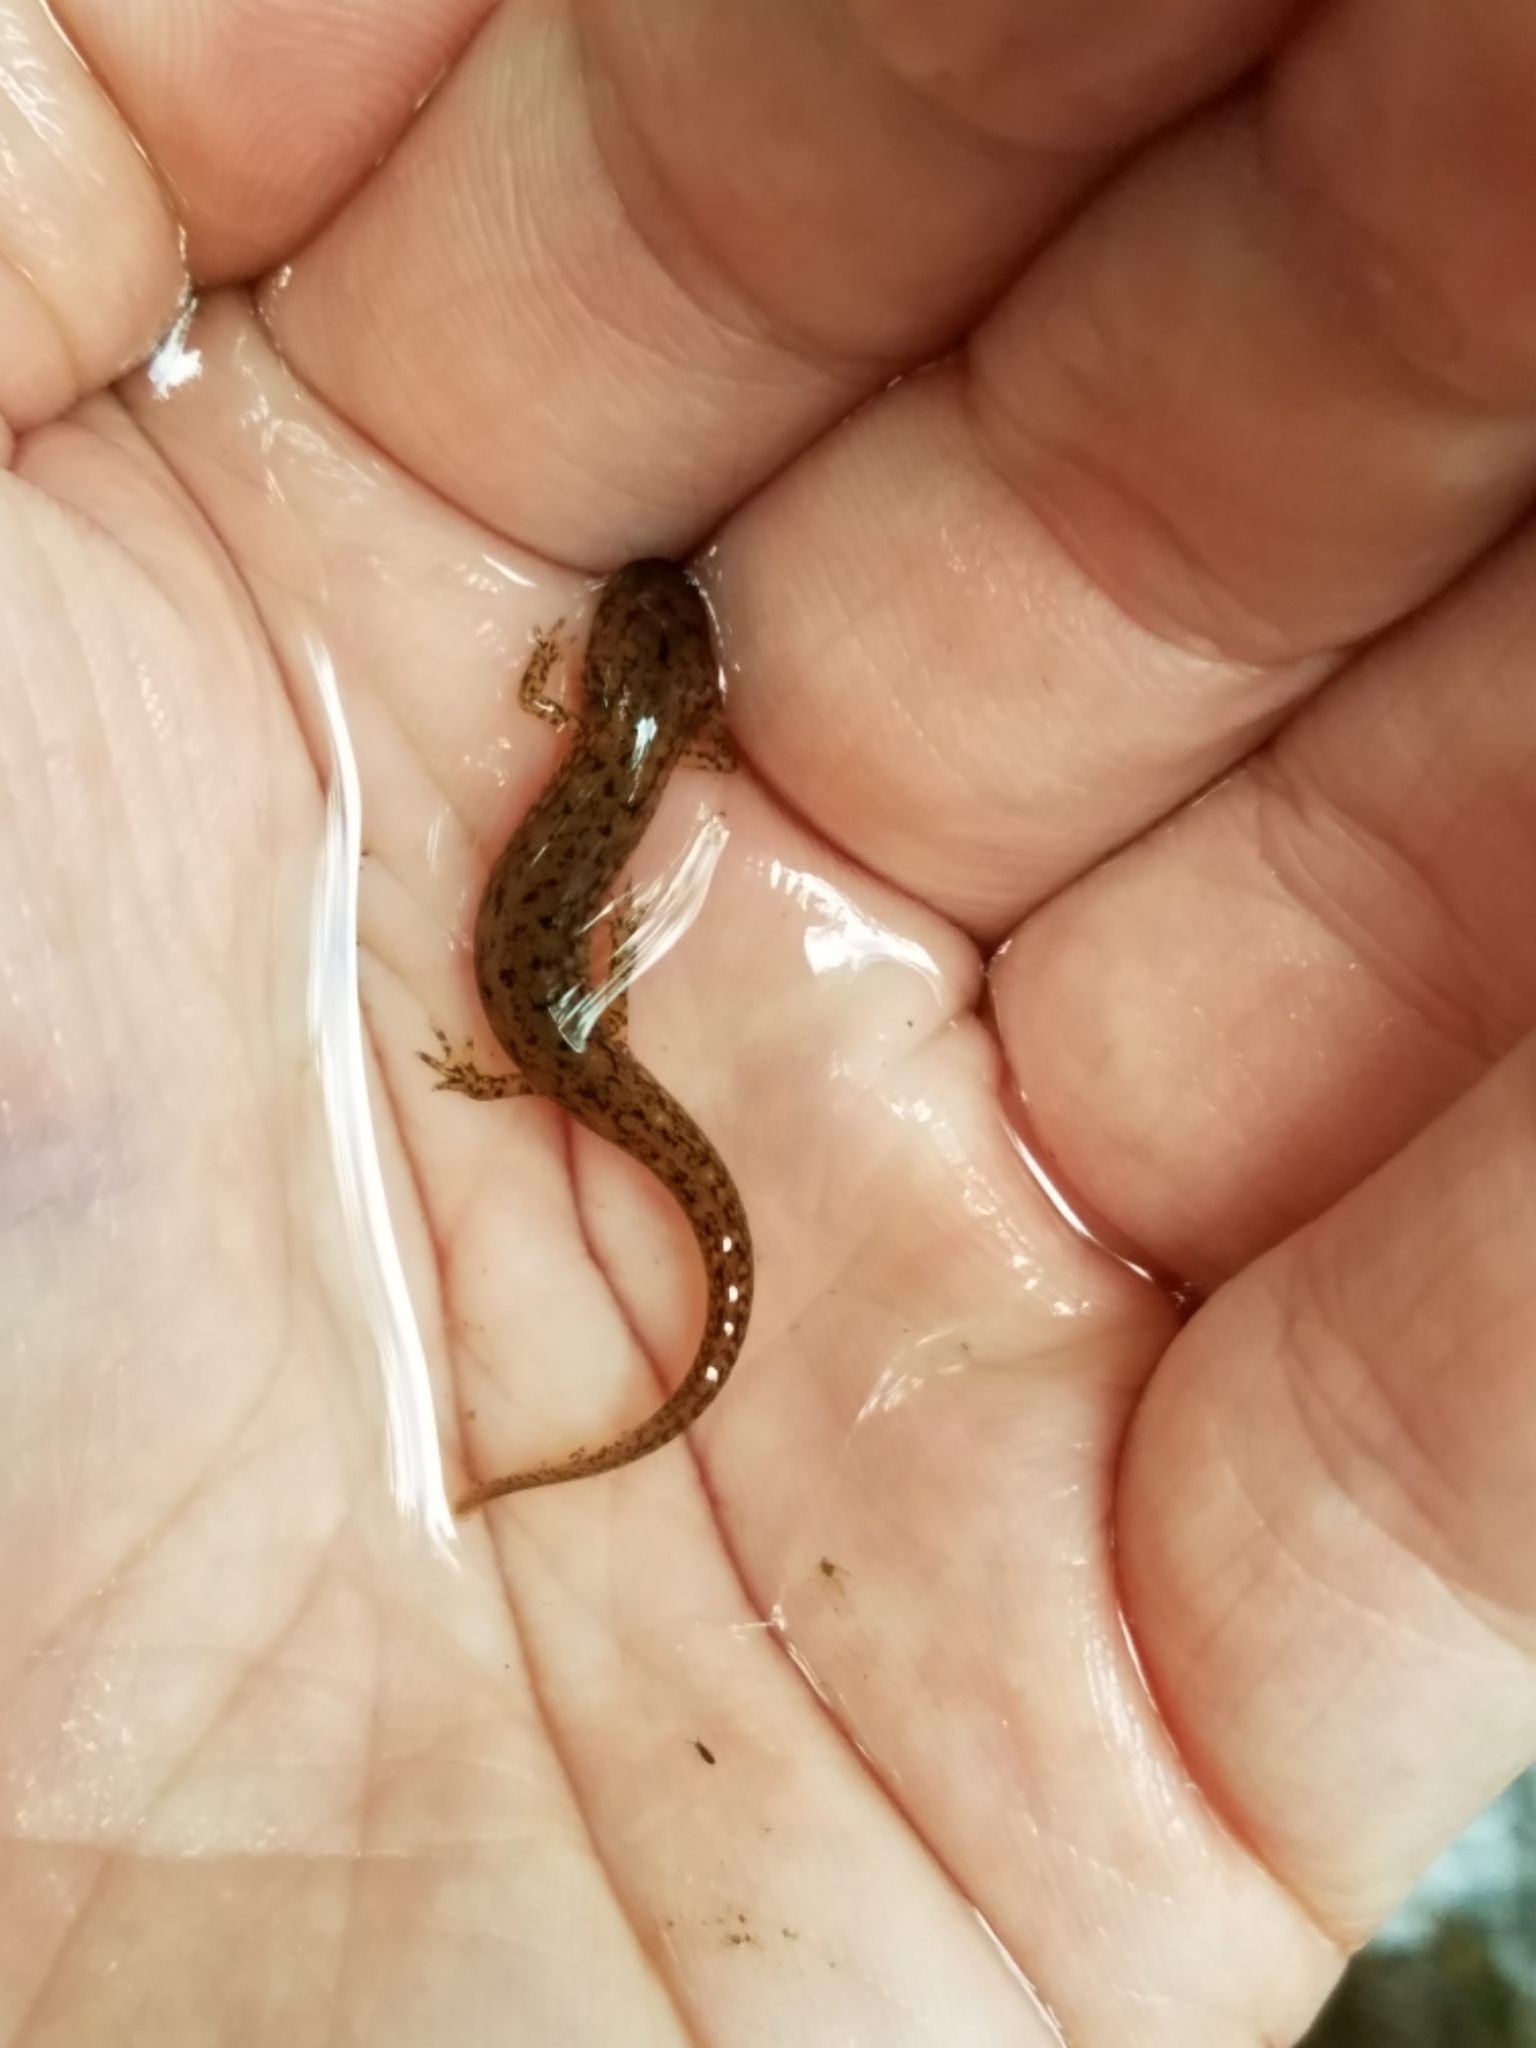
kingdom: Animalia
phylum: Chordata
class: Amphibia
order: Caudata
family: Plethodontidae
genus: Eurycea
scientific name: Eurycea bislineata
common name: Northern two-lined salamander
